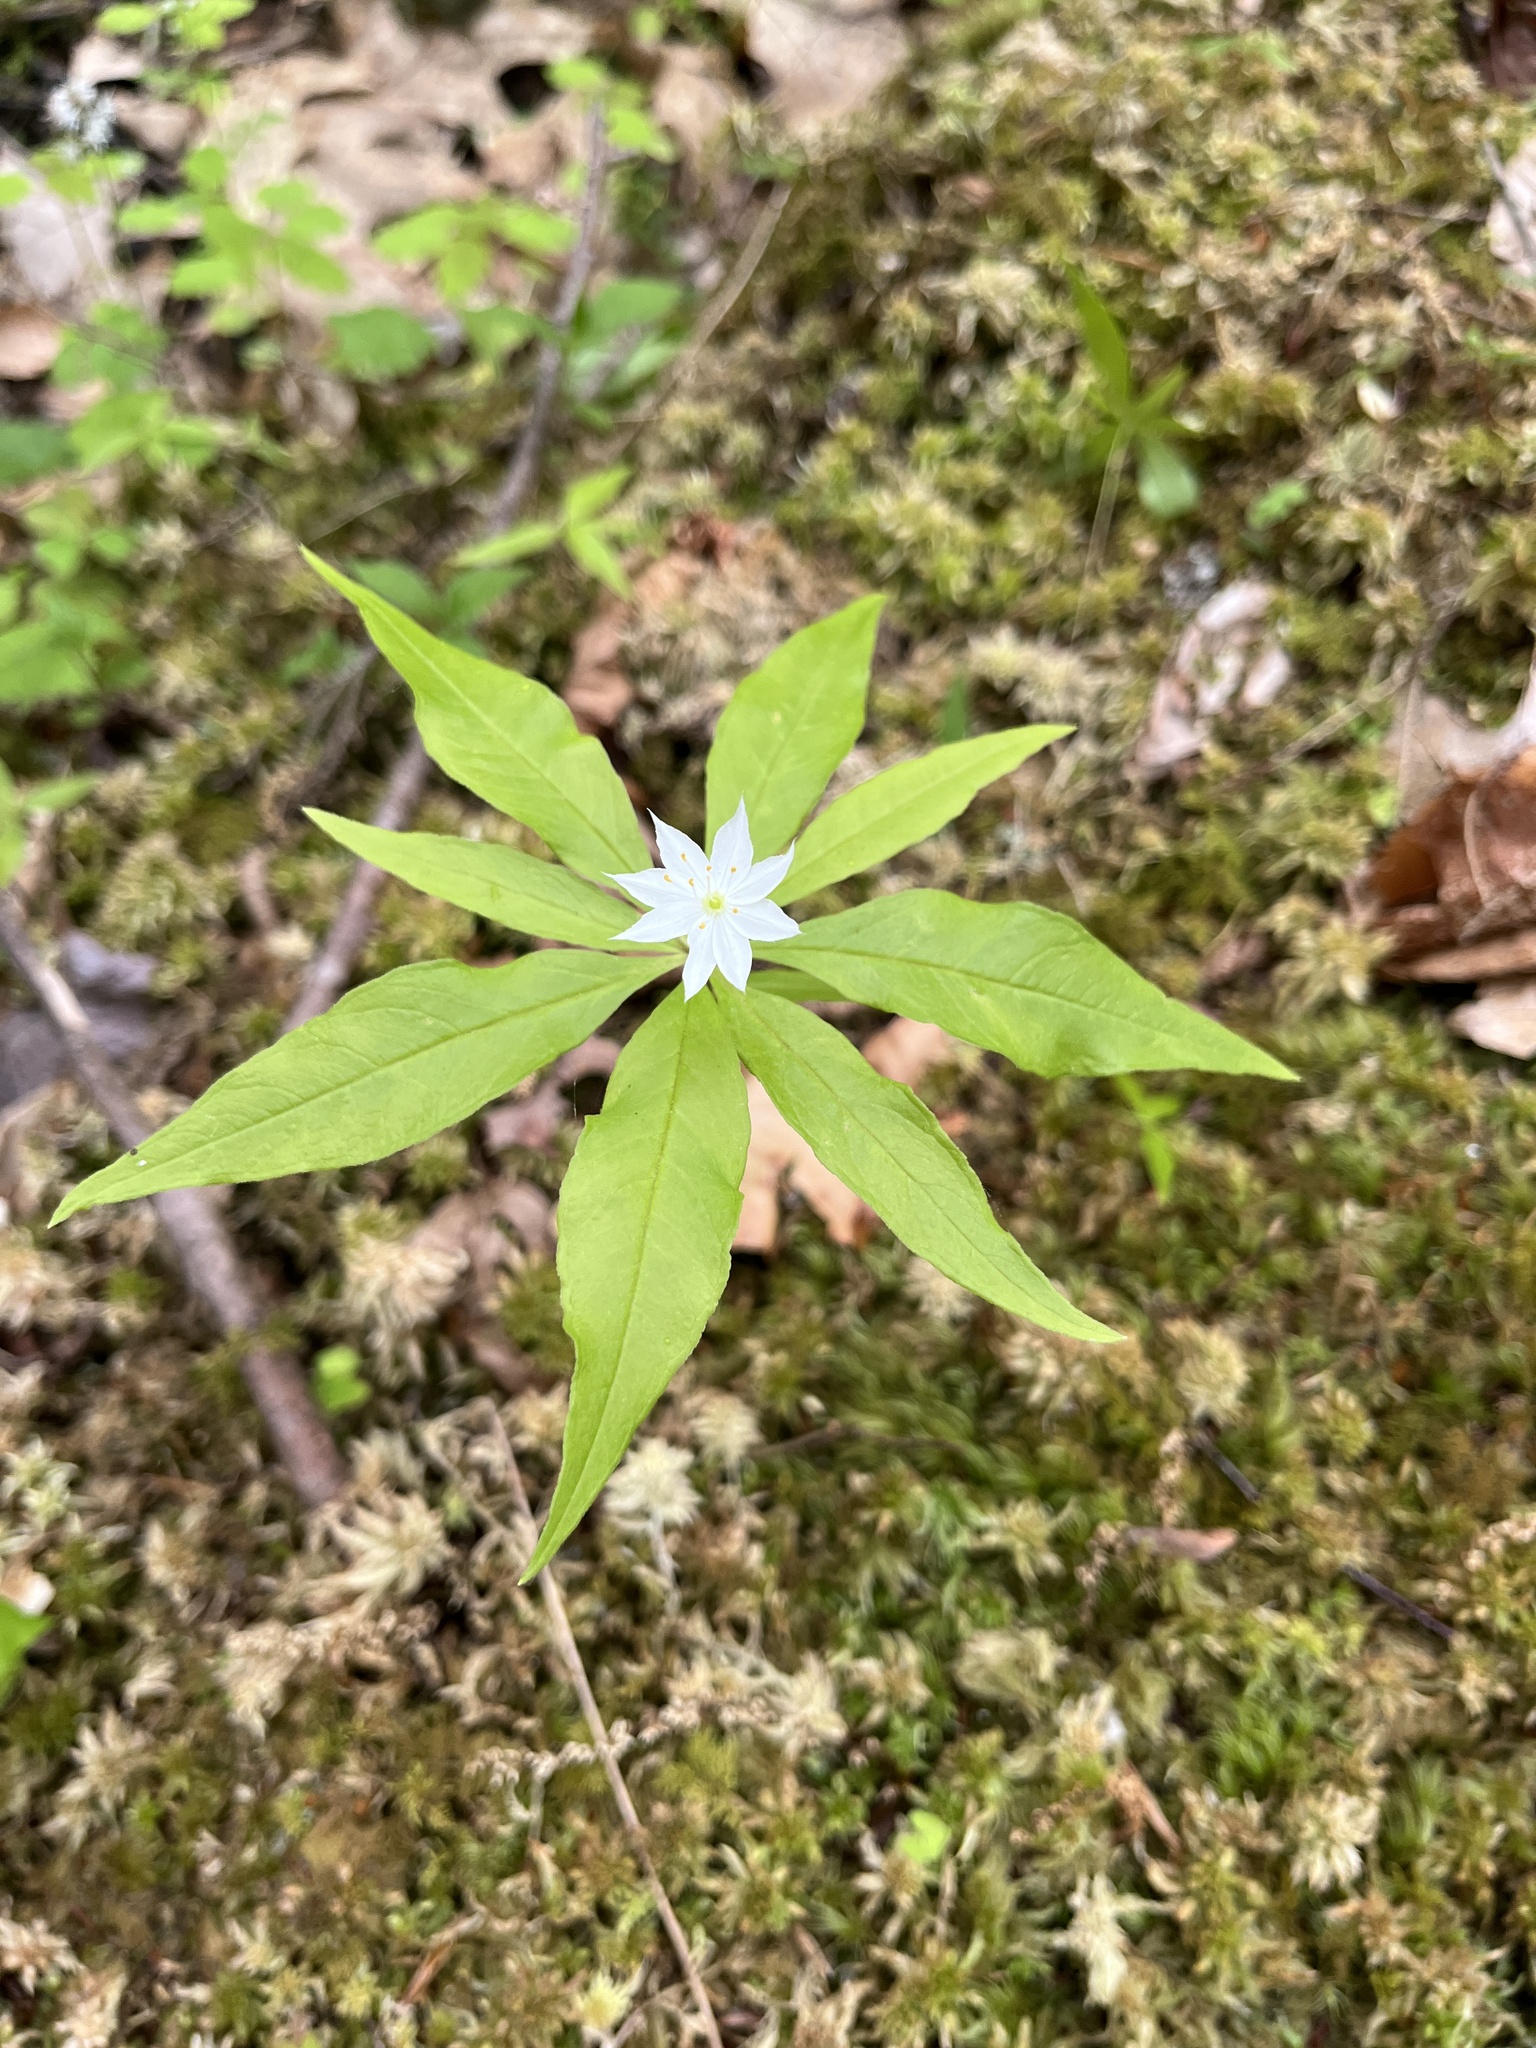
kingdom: Plantae
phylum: Tracheophyta
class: Magnoliopsida
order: Ericales
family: Primulaceae
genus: Lysimachia
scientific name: Lysimachia borealis
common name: American starflower
